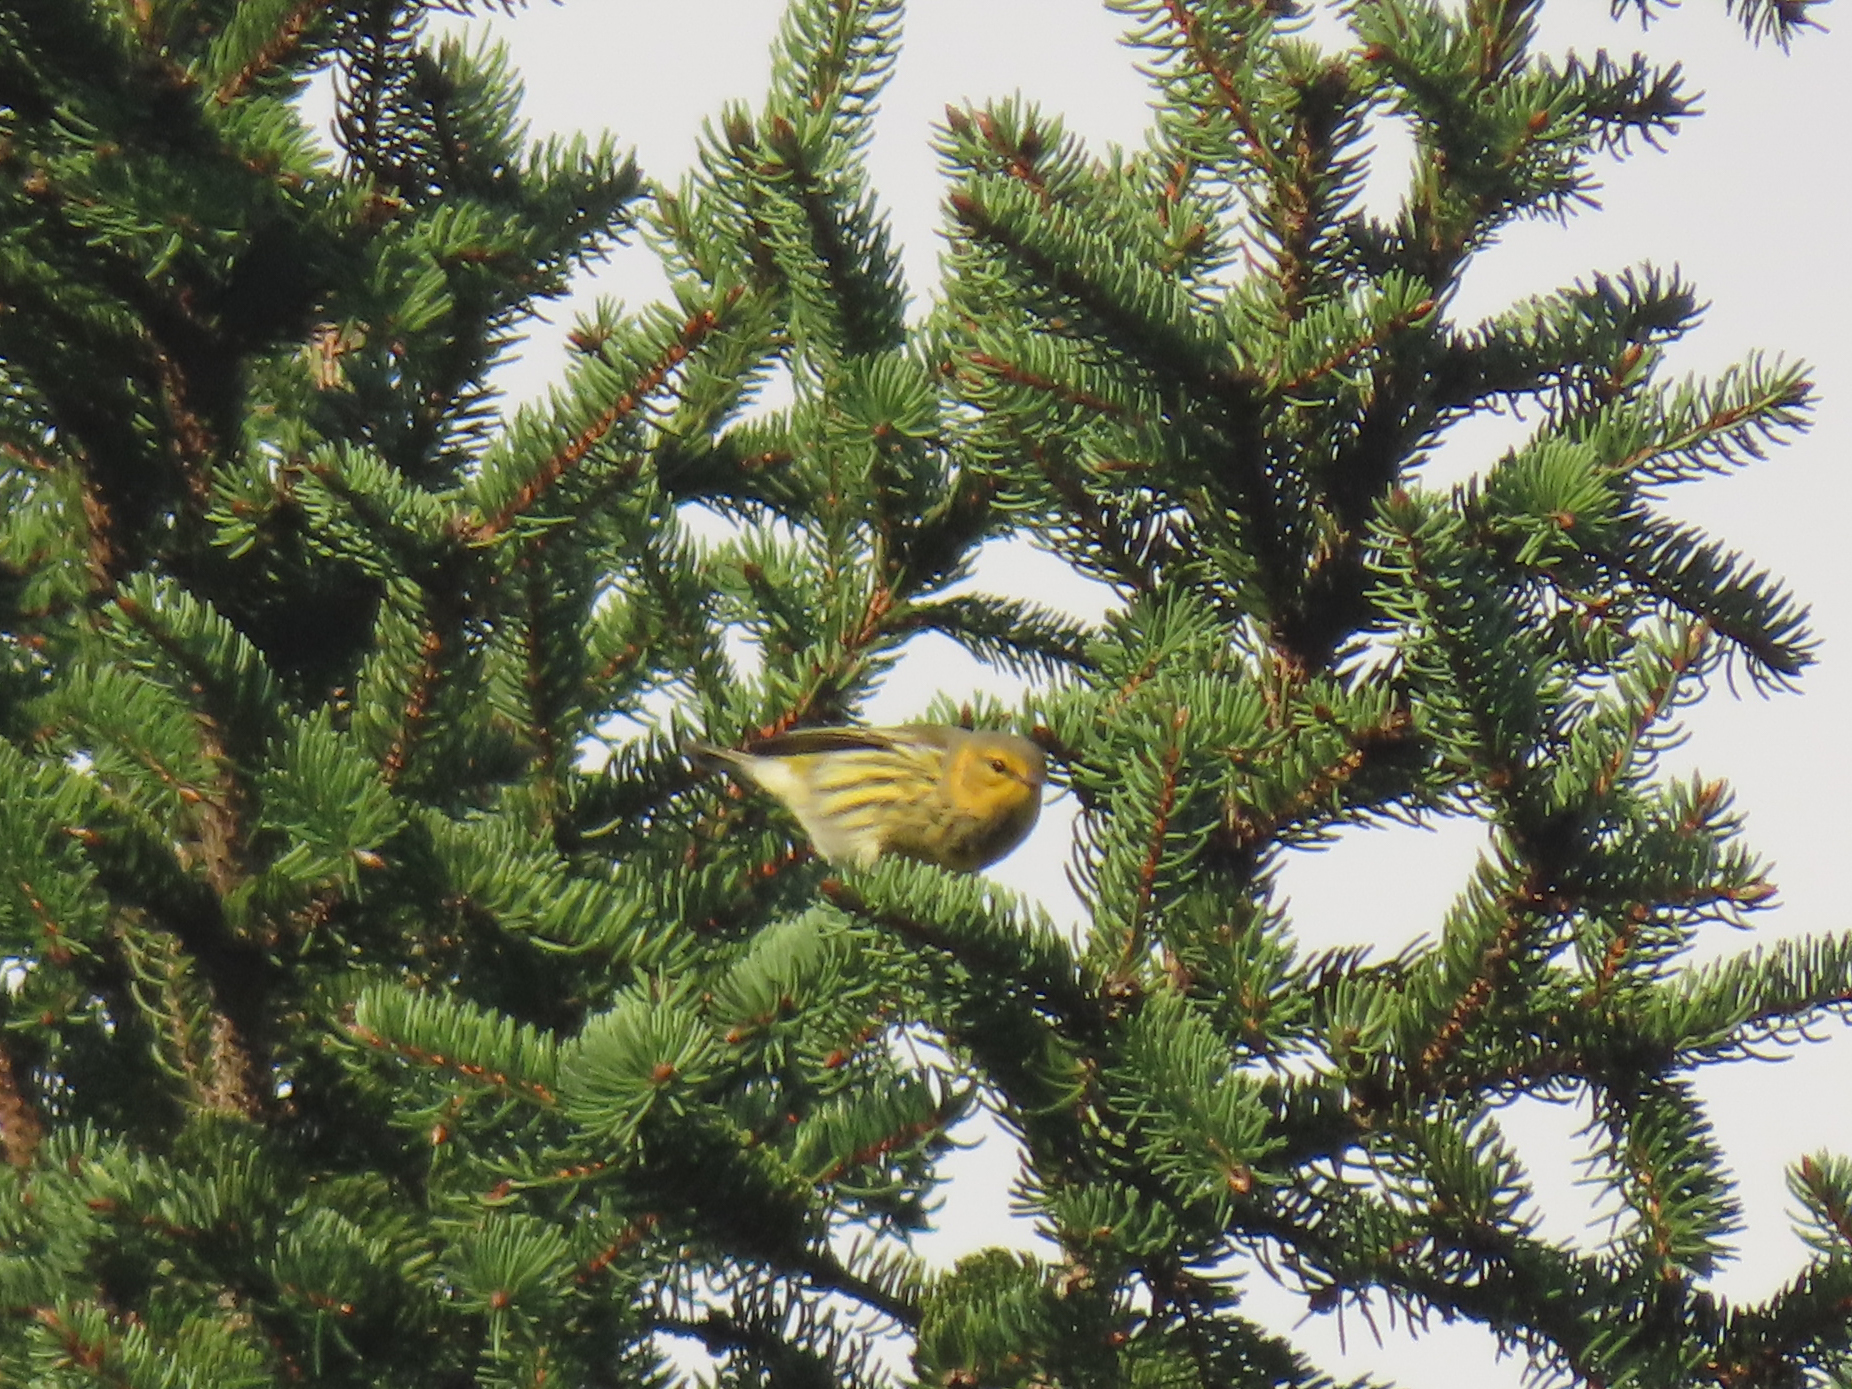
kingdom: Animalia
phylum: Chordata
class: Aves
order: Passeriformes
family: Parulidae
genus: Setophaga
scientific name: Setophaga tigrina
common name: Cape may warbler
